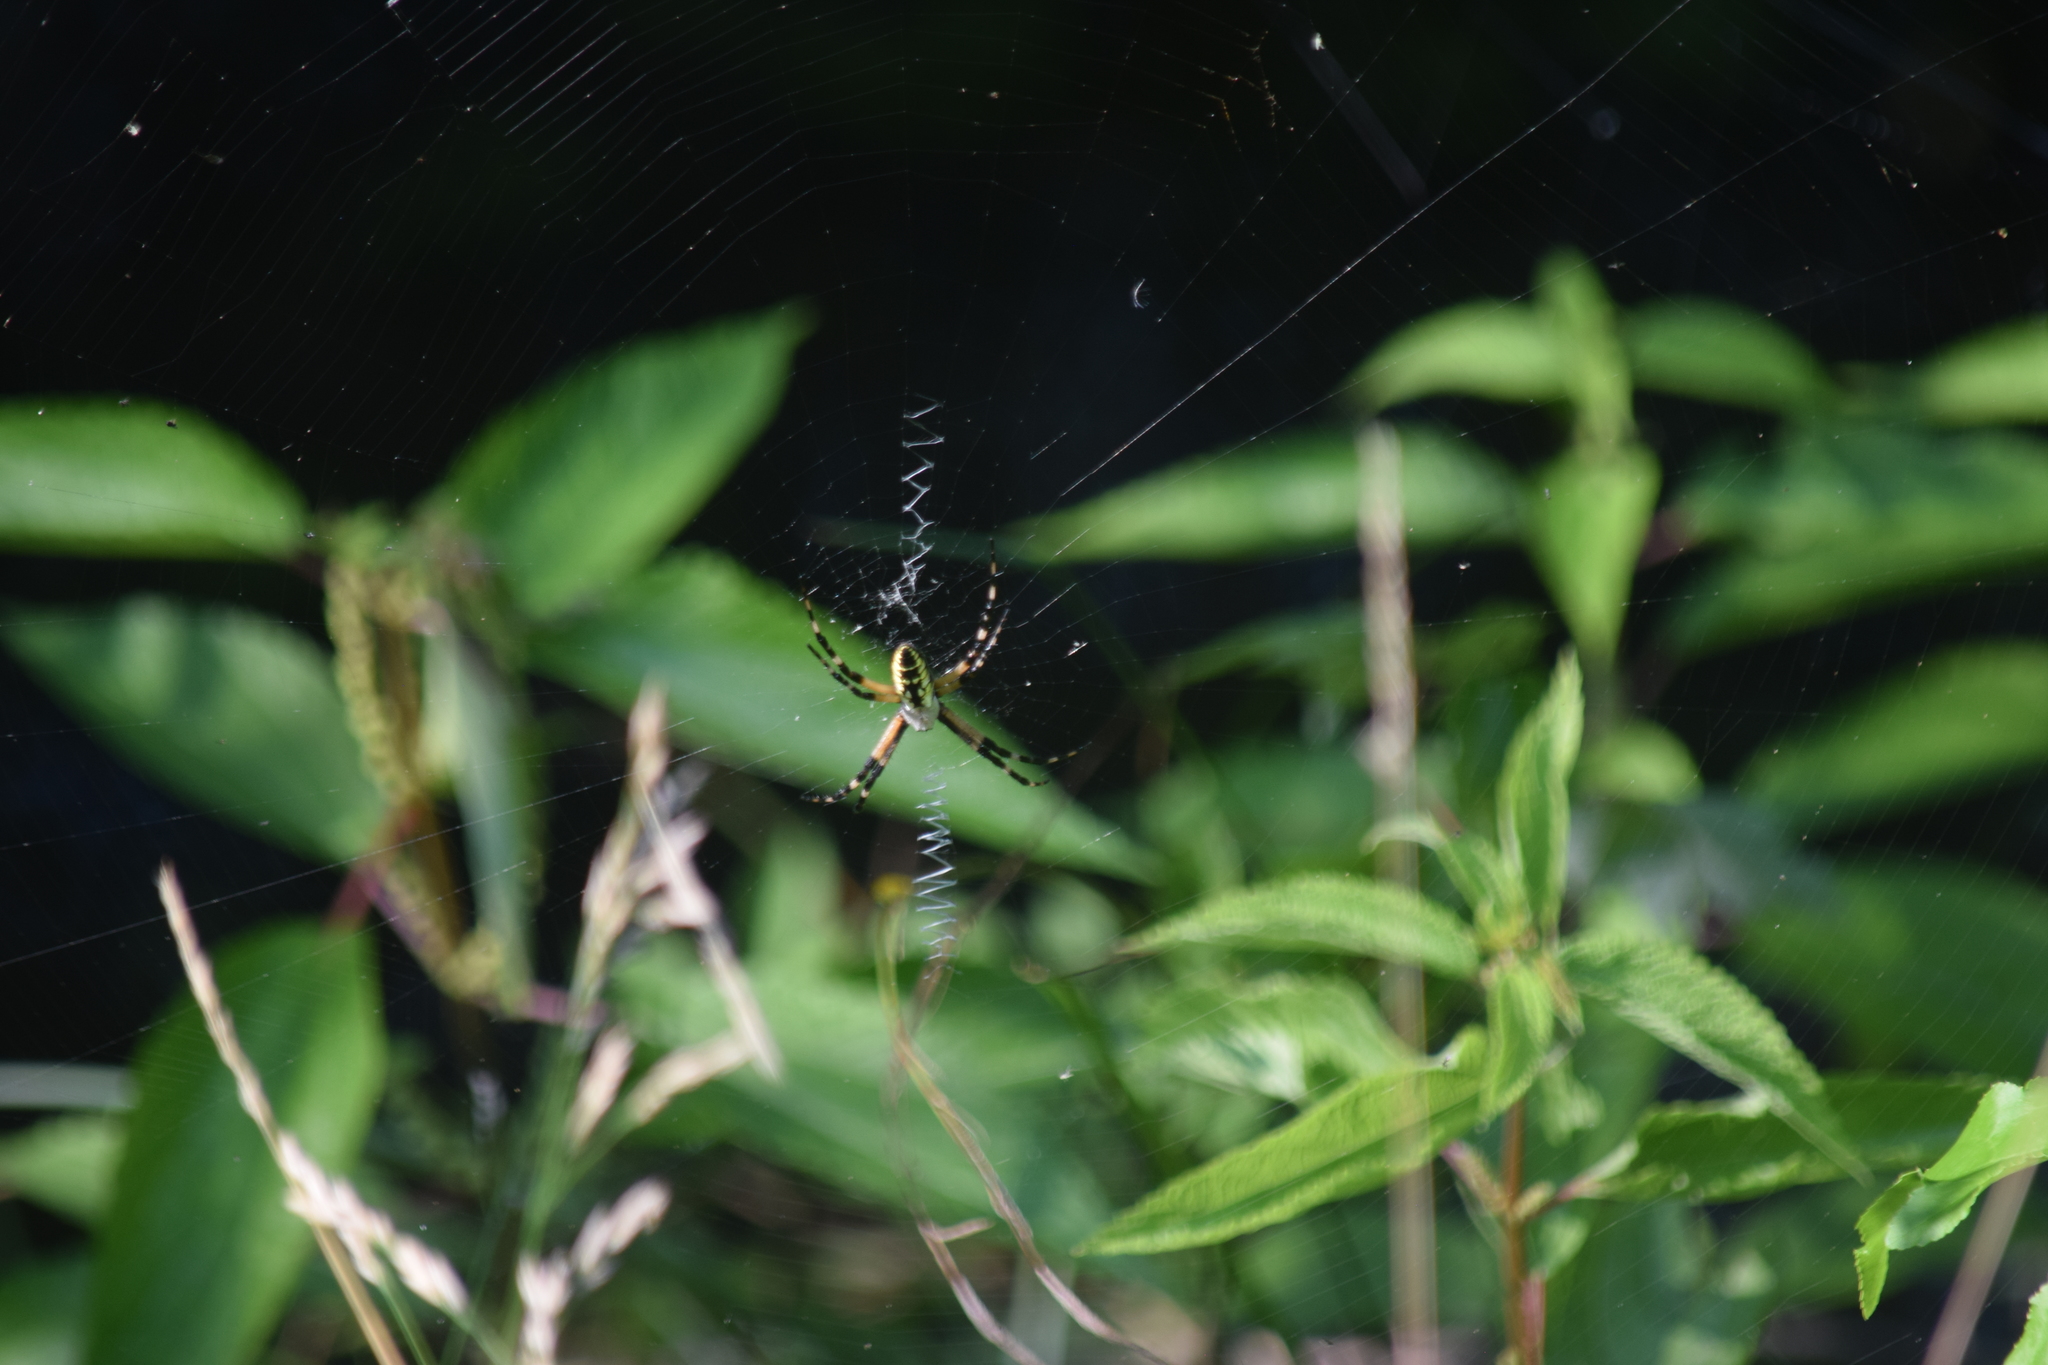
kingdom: Animalia
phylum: Arthropoda
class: Arachnida
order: Araneae
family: Araneidae
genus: Argiope
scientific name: Argiope aurantia
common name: Orb weavers
